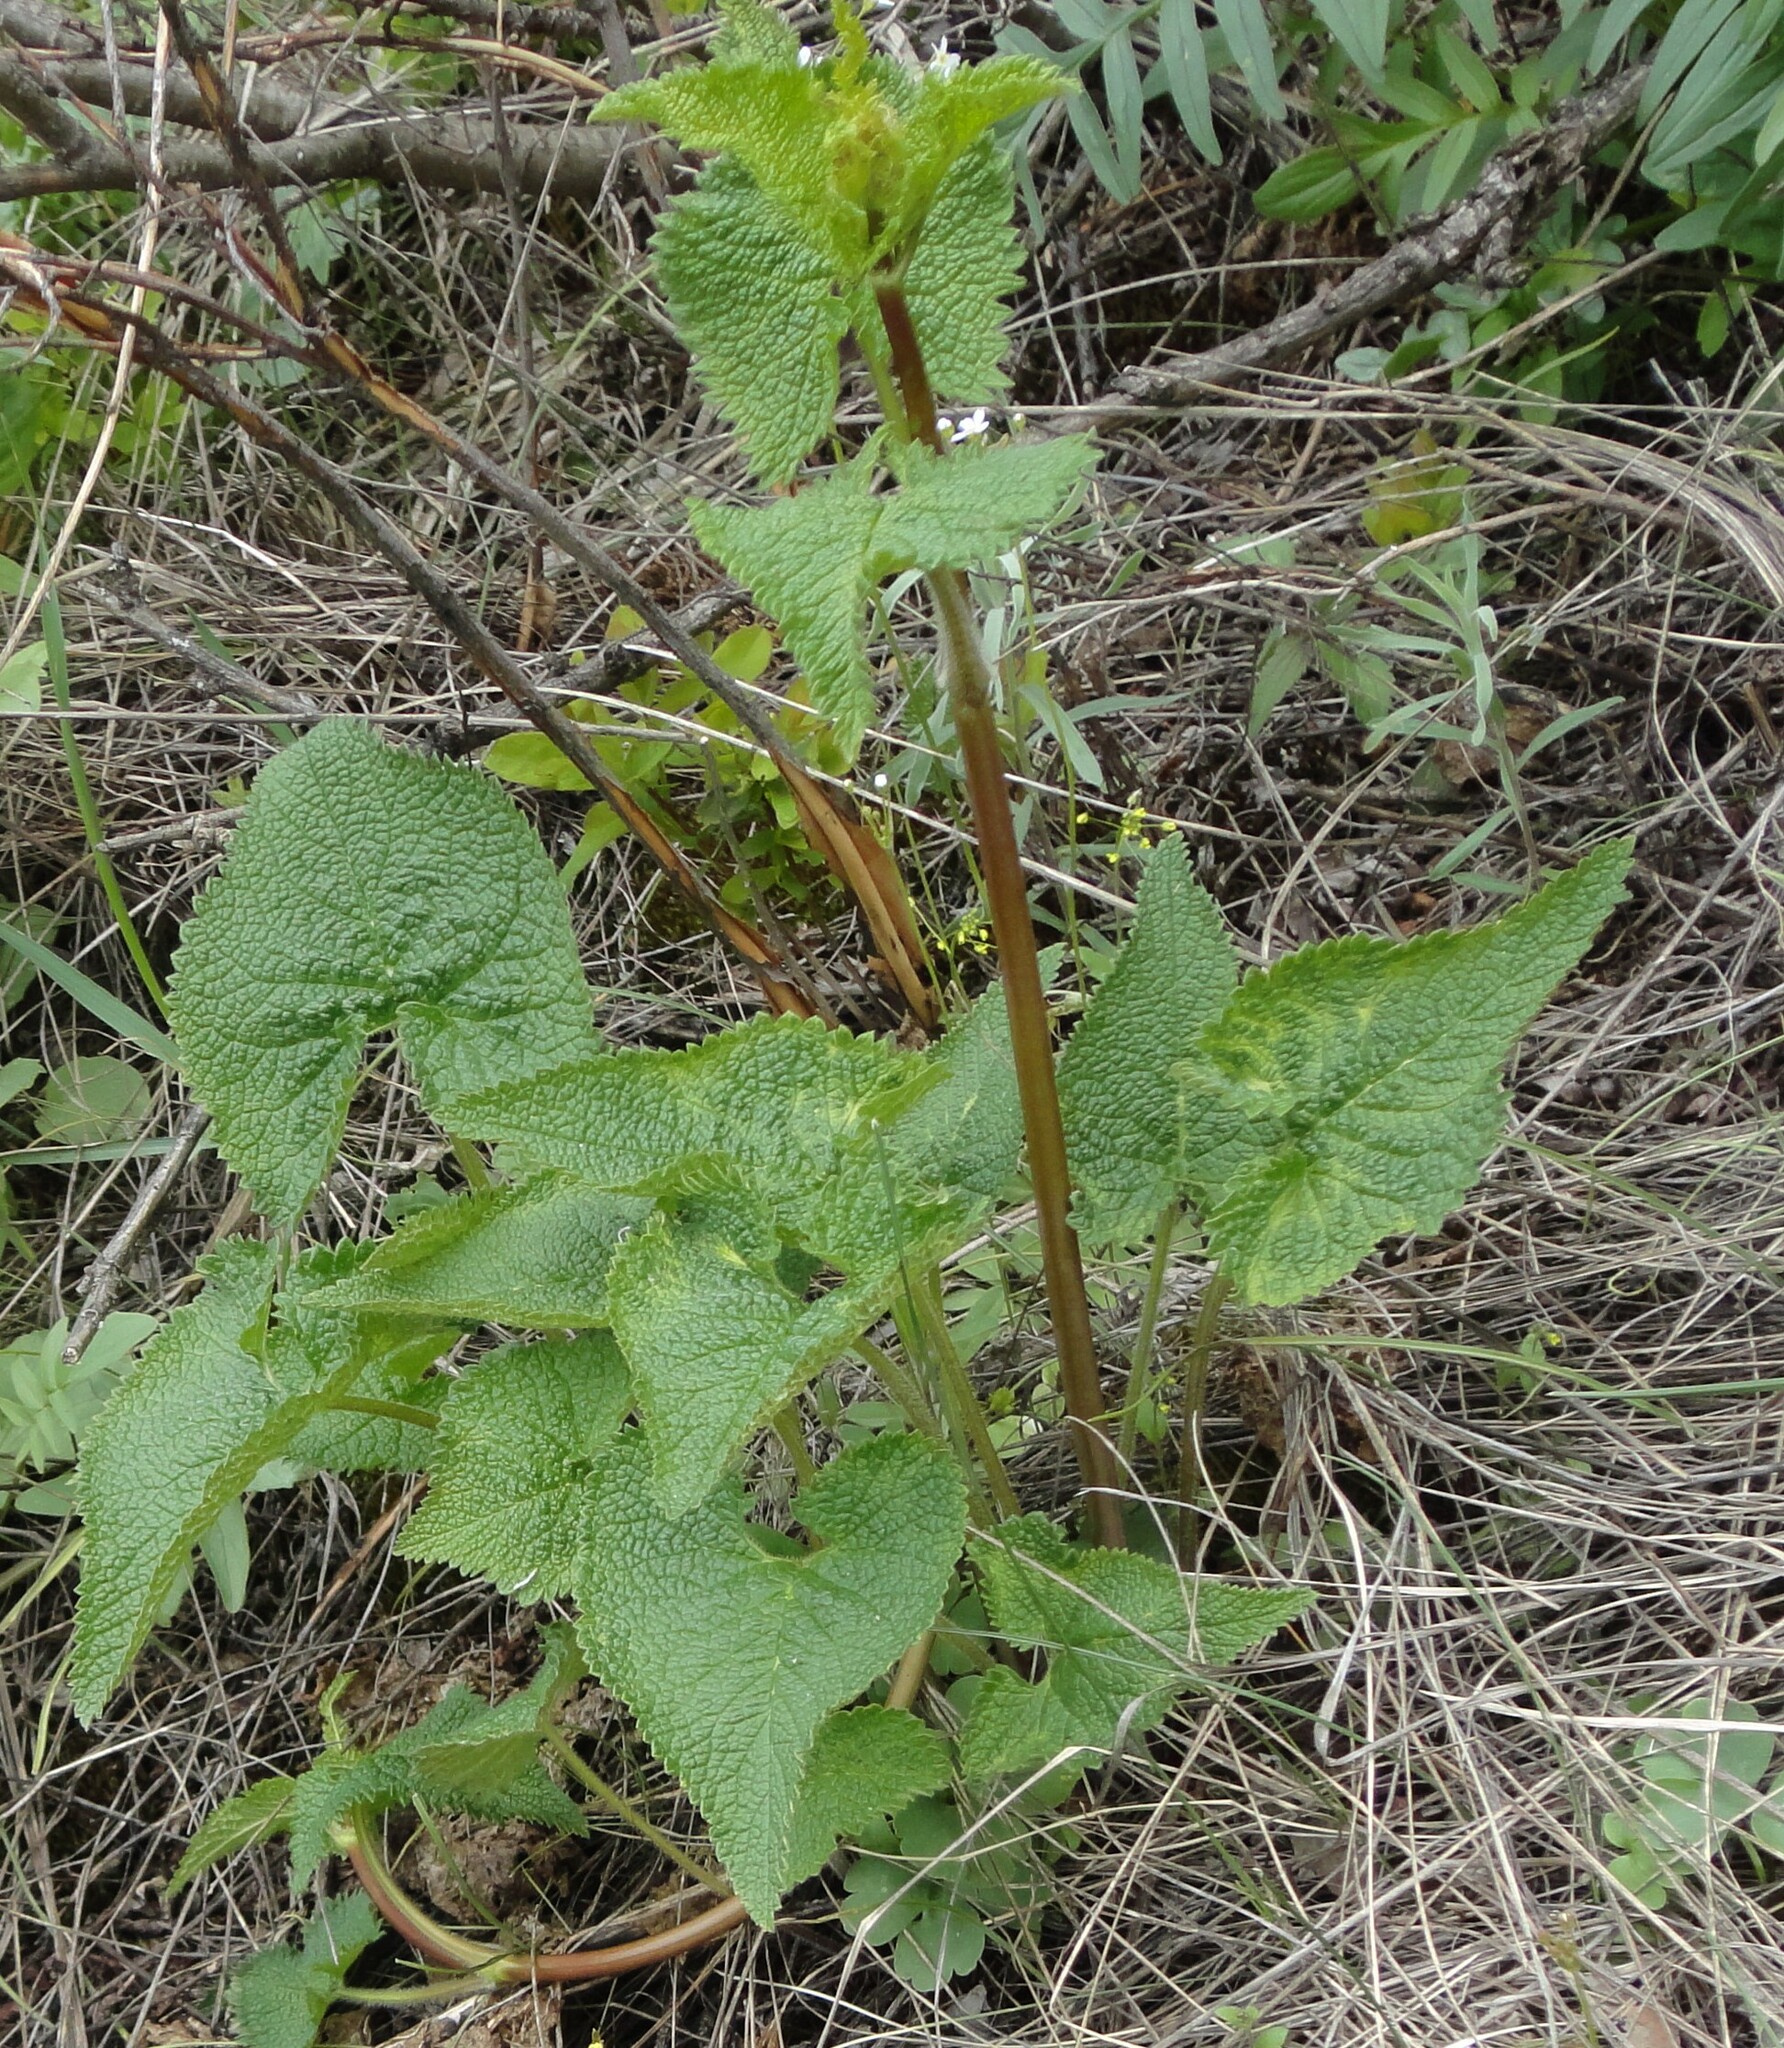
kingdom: Plantae
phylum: Tracheophyta
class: Magnoliopsida
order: Lamiales
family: Lamiaceae
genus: Phlomoides
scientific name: Phlomoides tuberosa
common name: Tuberous jerusalem sage
